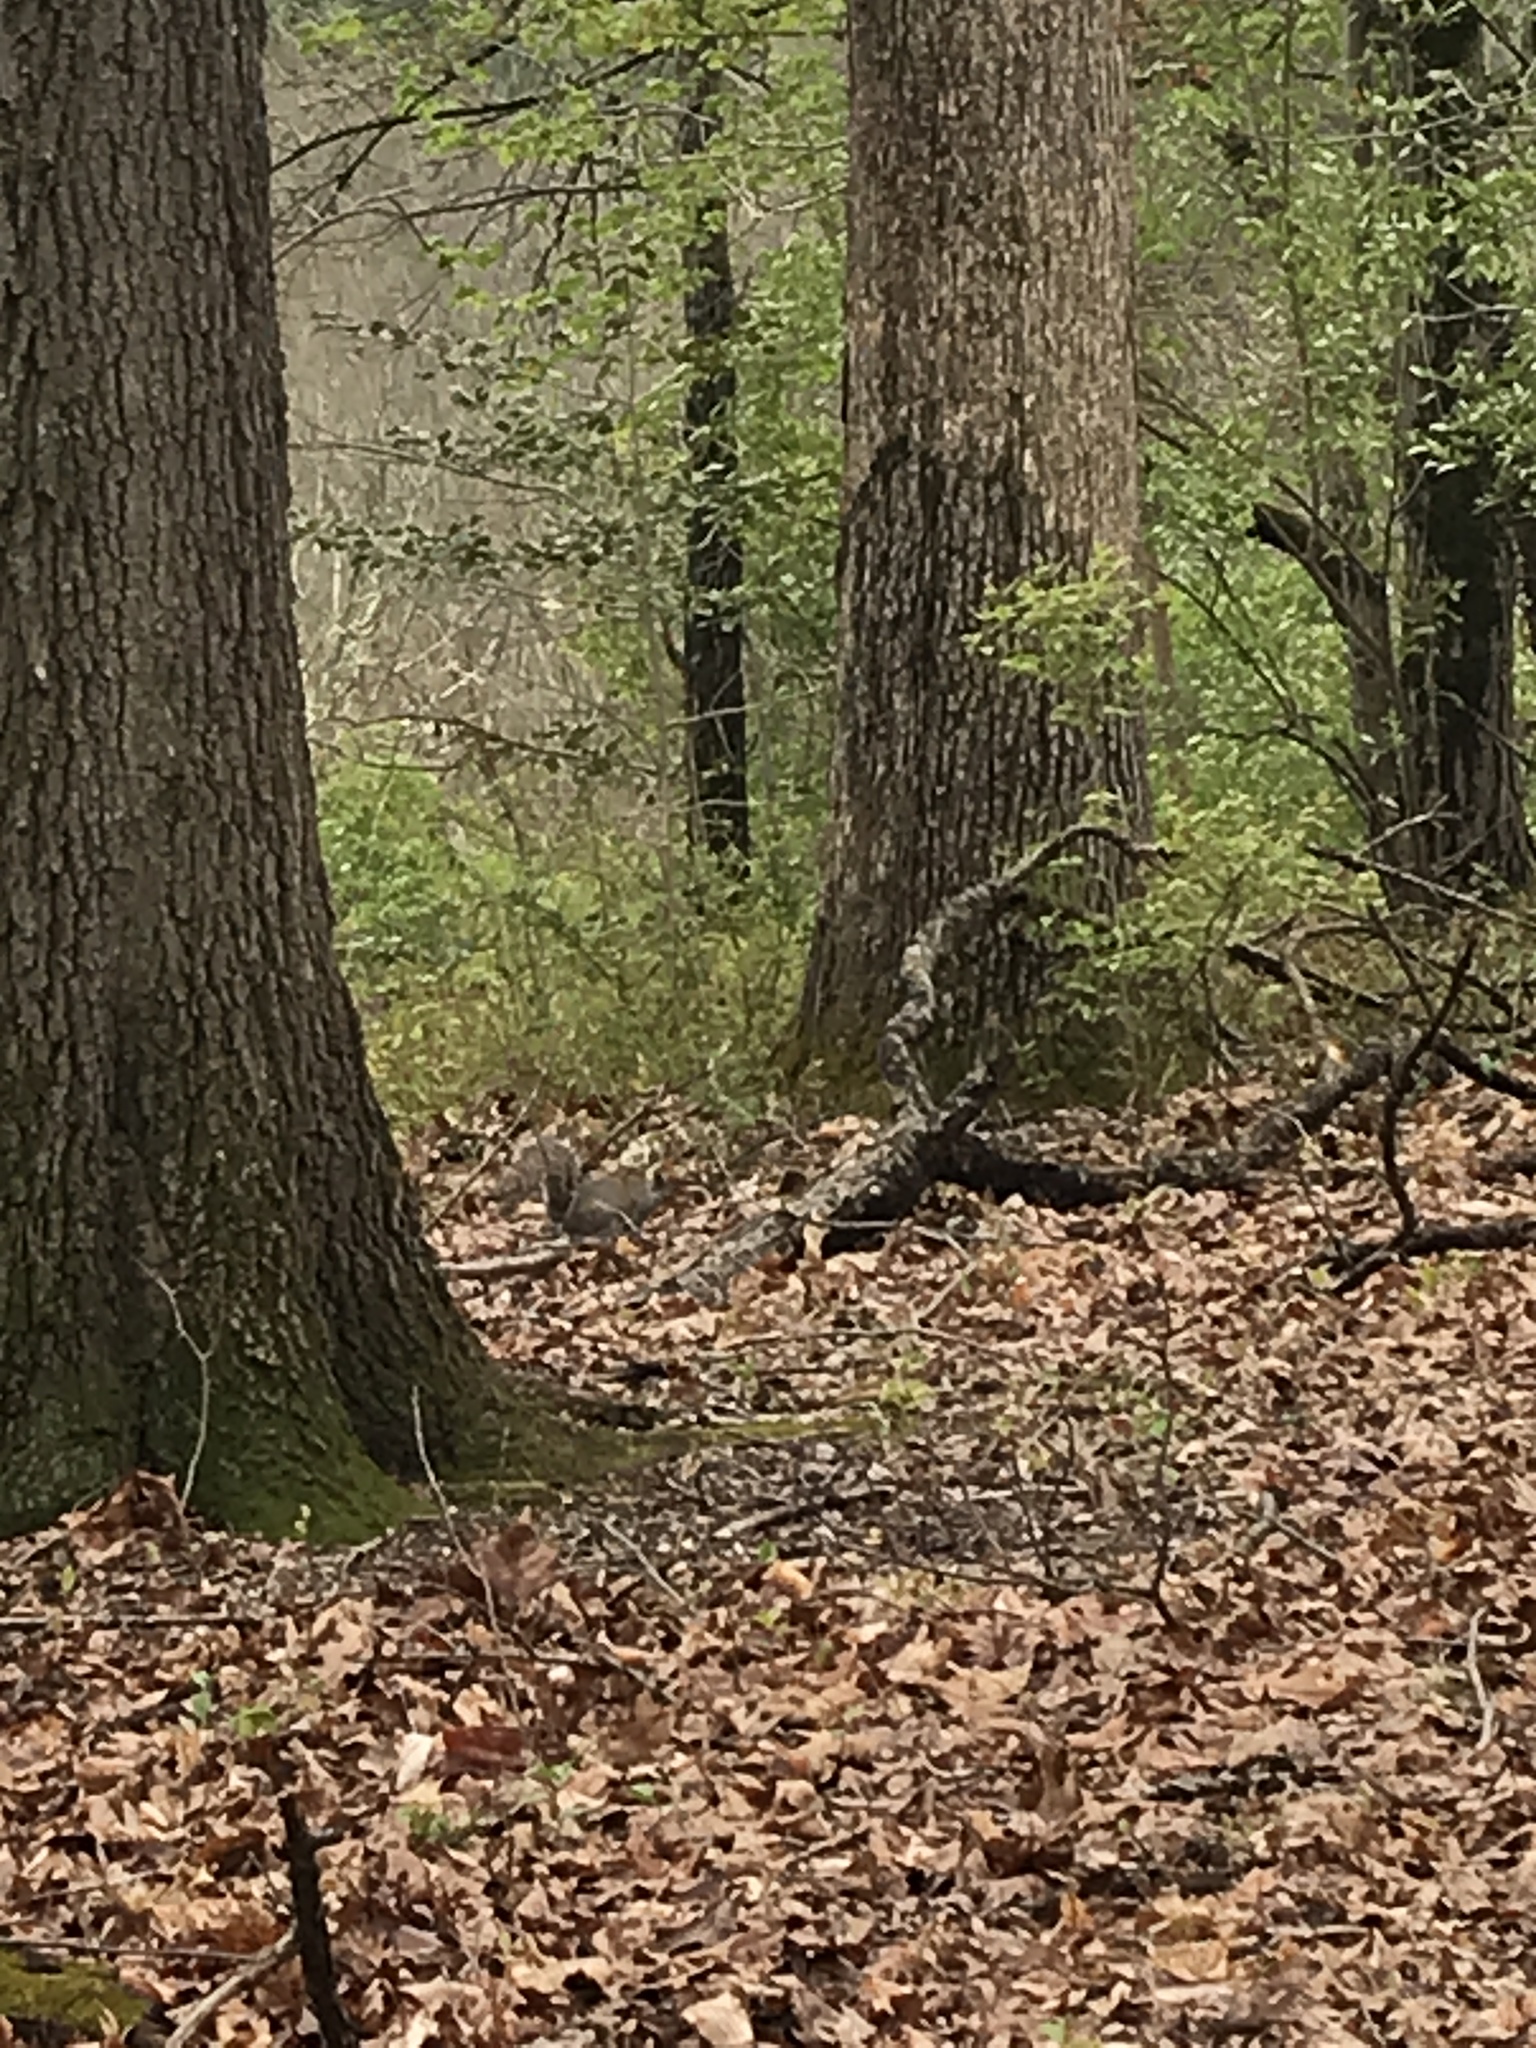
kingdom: Animalia
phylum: Chordata
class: Mammalia
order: Rodentia
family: Sciuridae
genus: Sciurus
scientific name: Sciurus carolinensis
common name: Eastern gray squirrel
